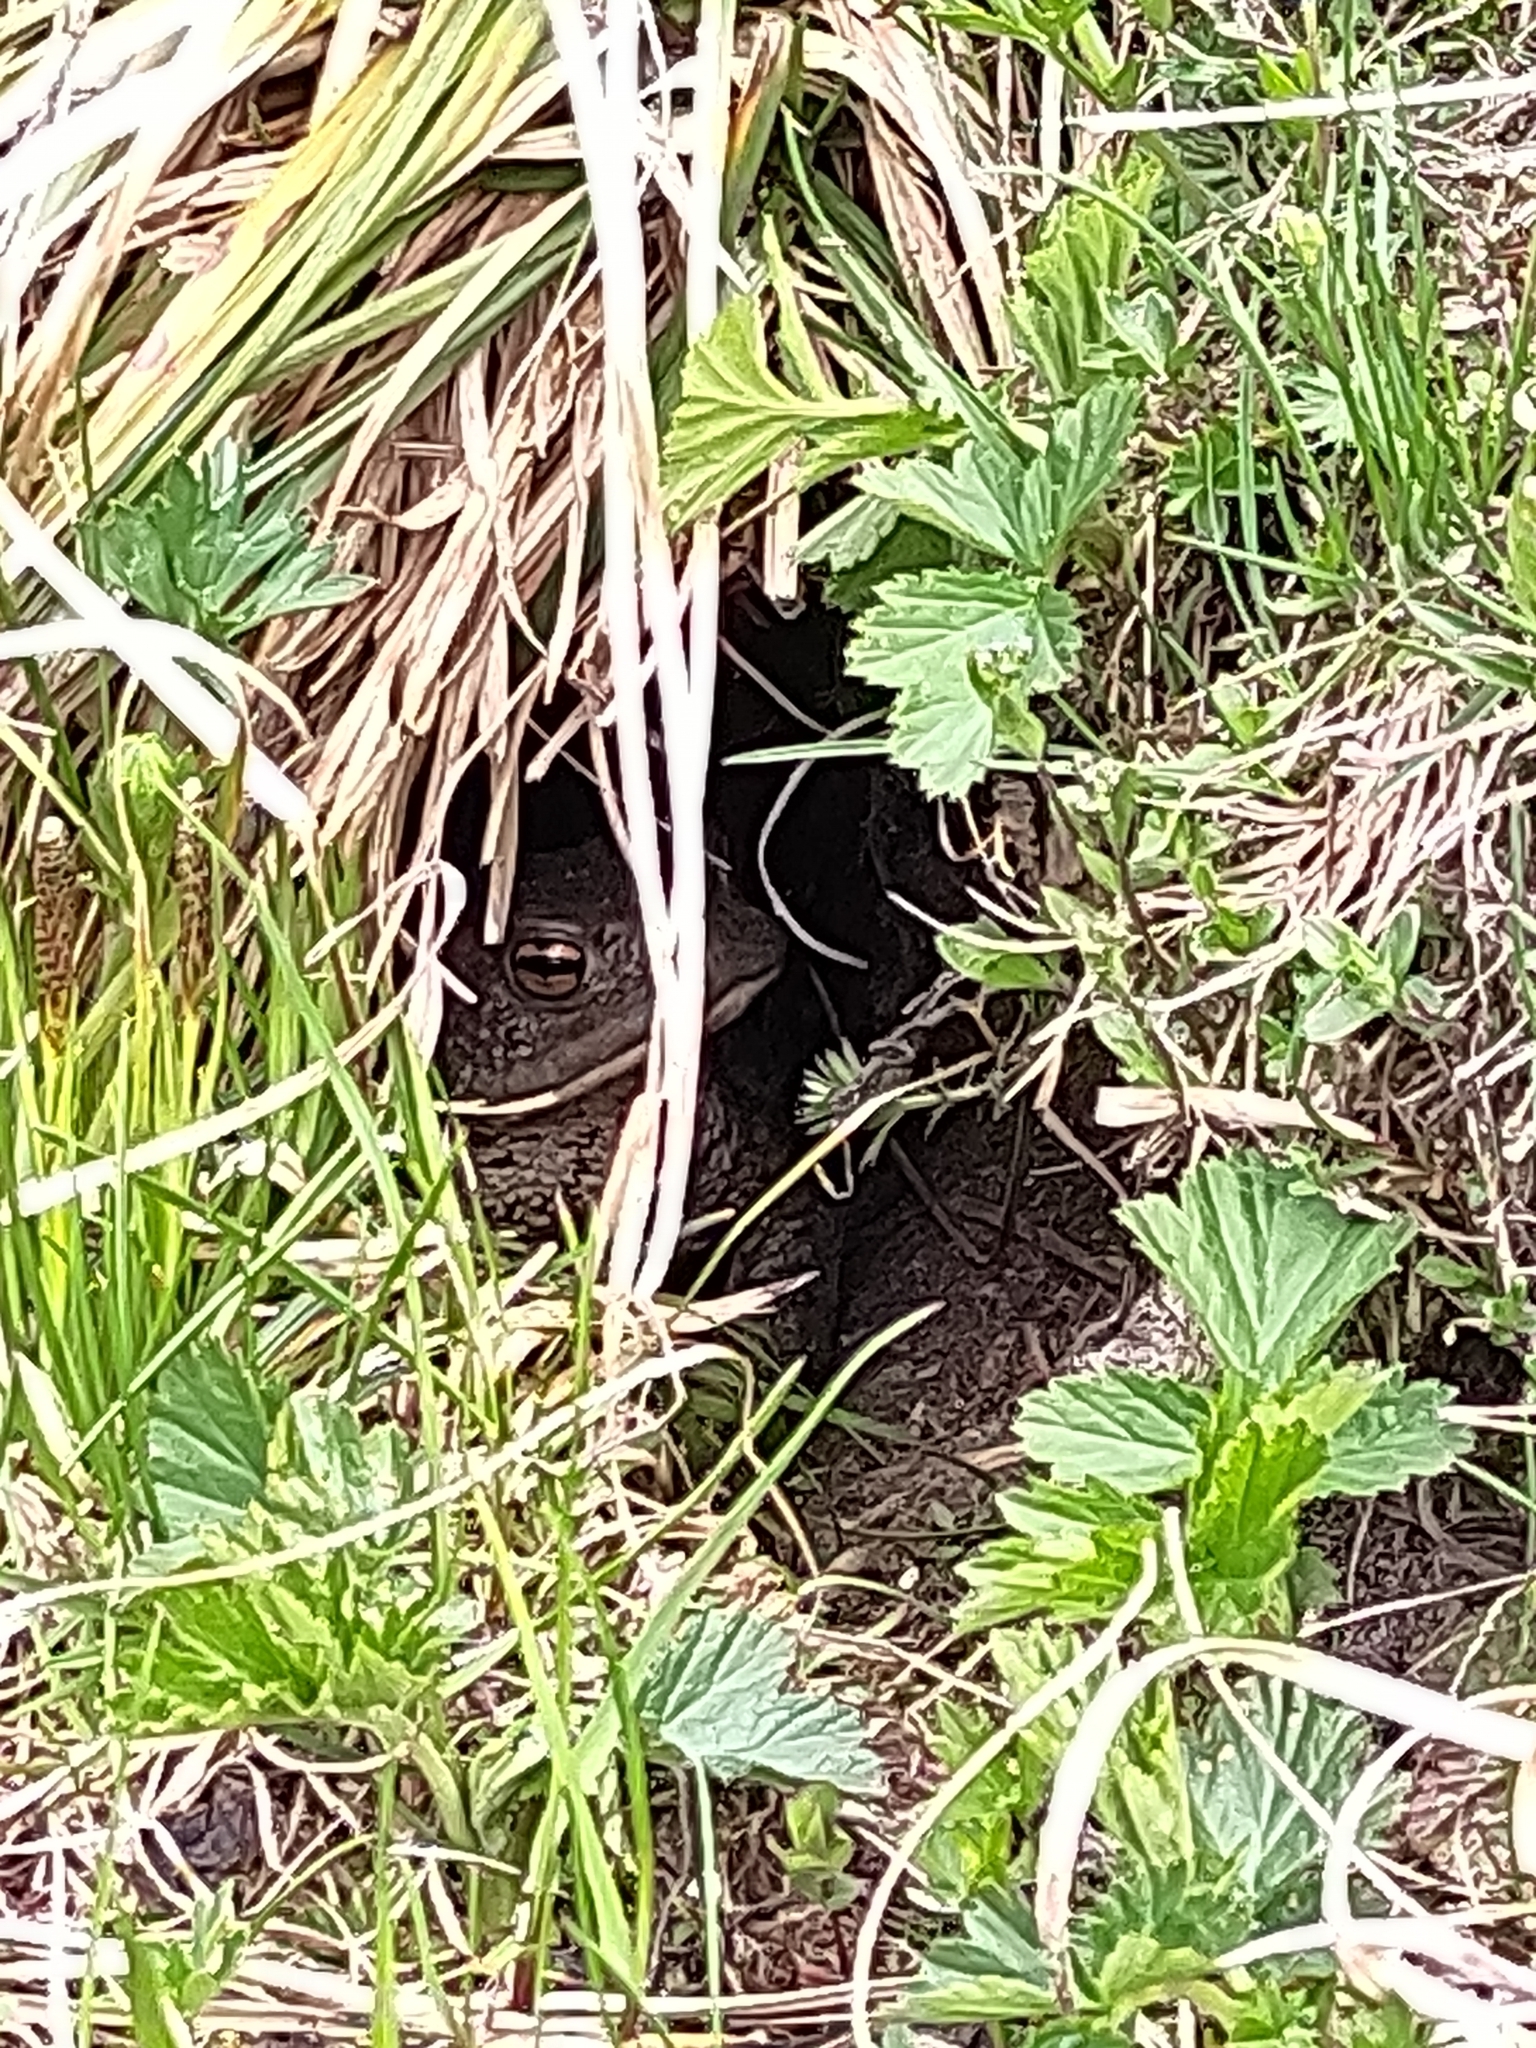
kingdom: Animalia
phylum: Chordata
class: Amphibia
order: Anura
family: Bufonidae
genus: Bufo
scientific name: Bufo bufo
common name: Common toad
